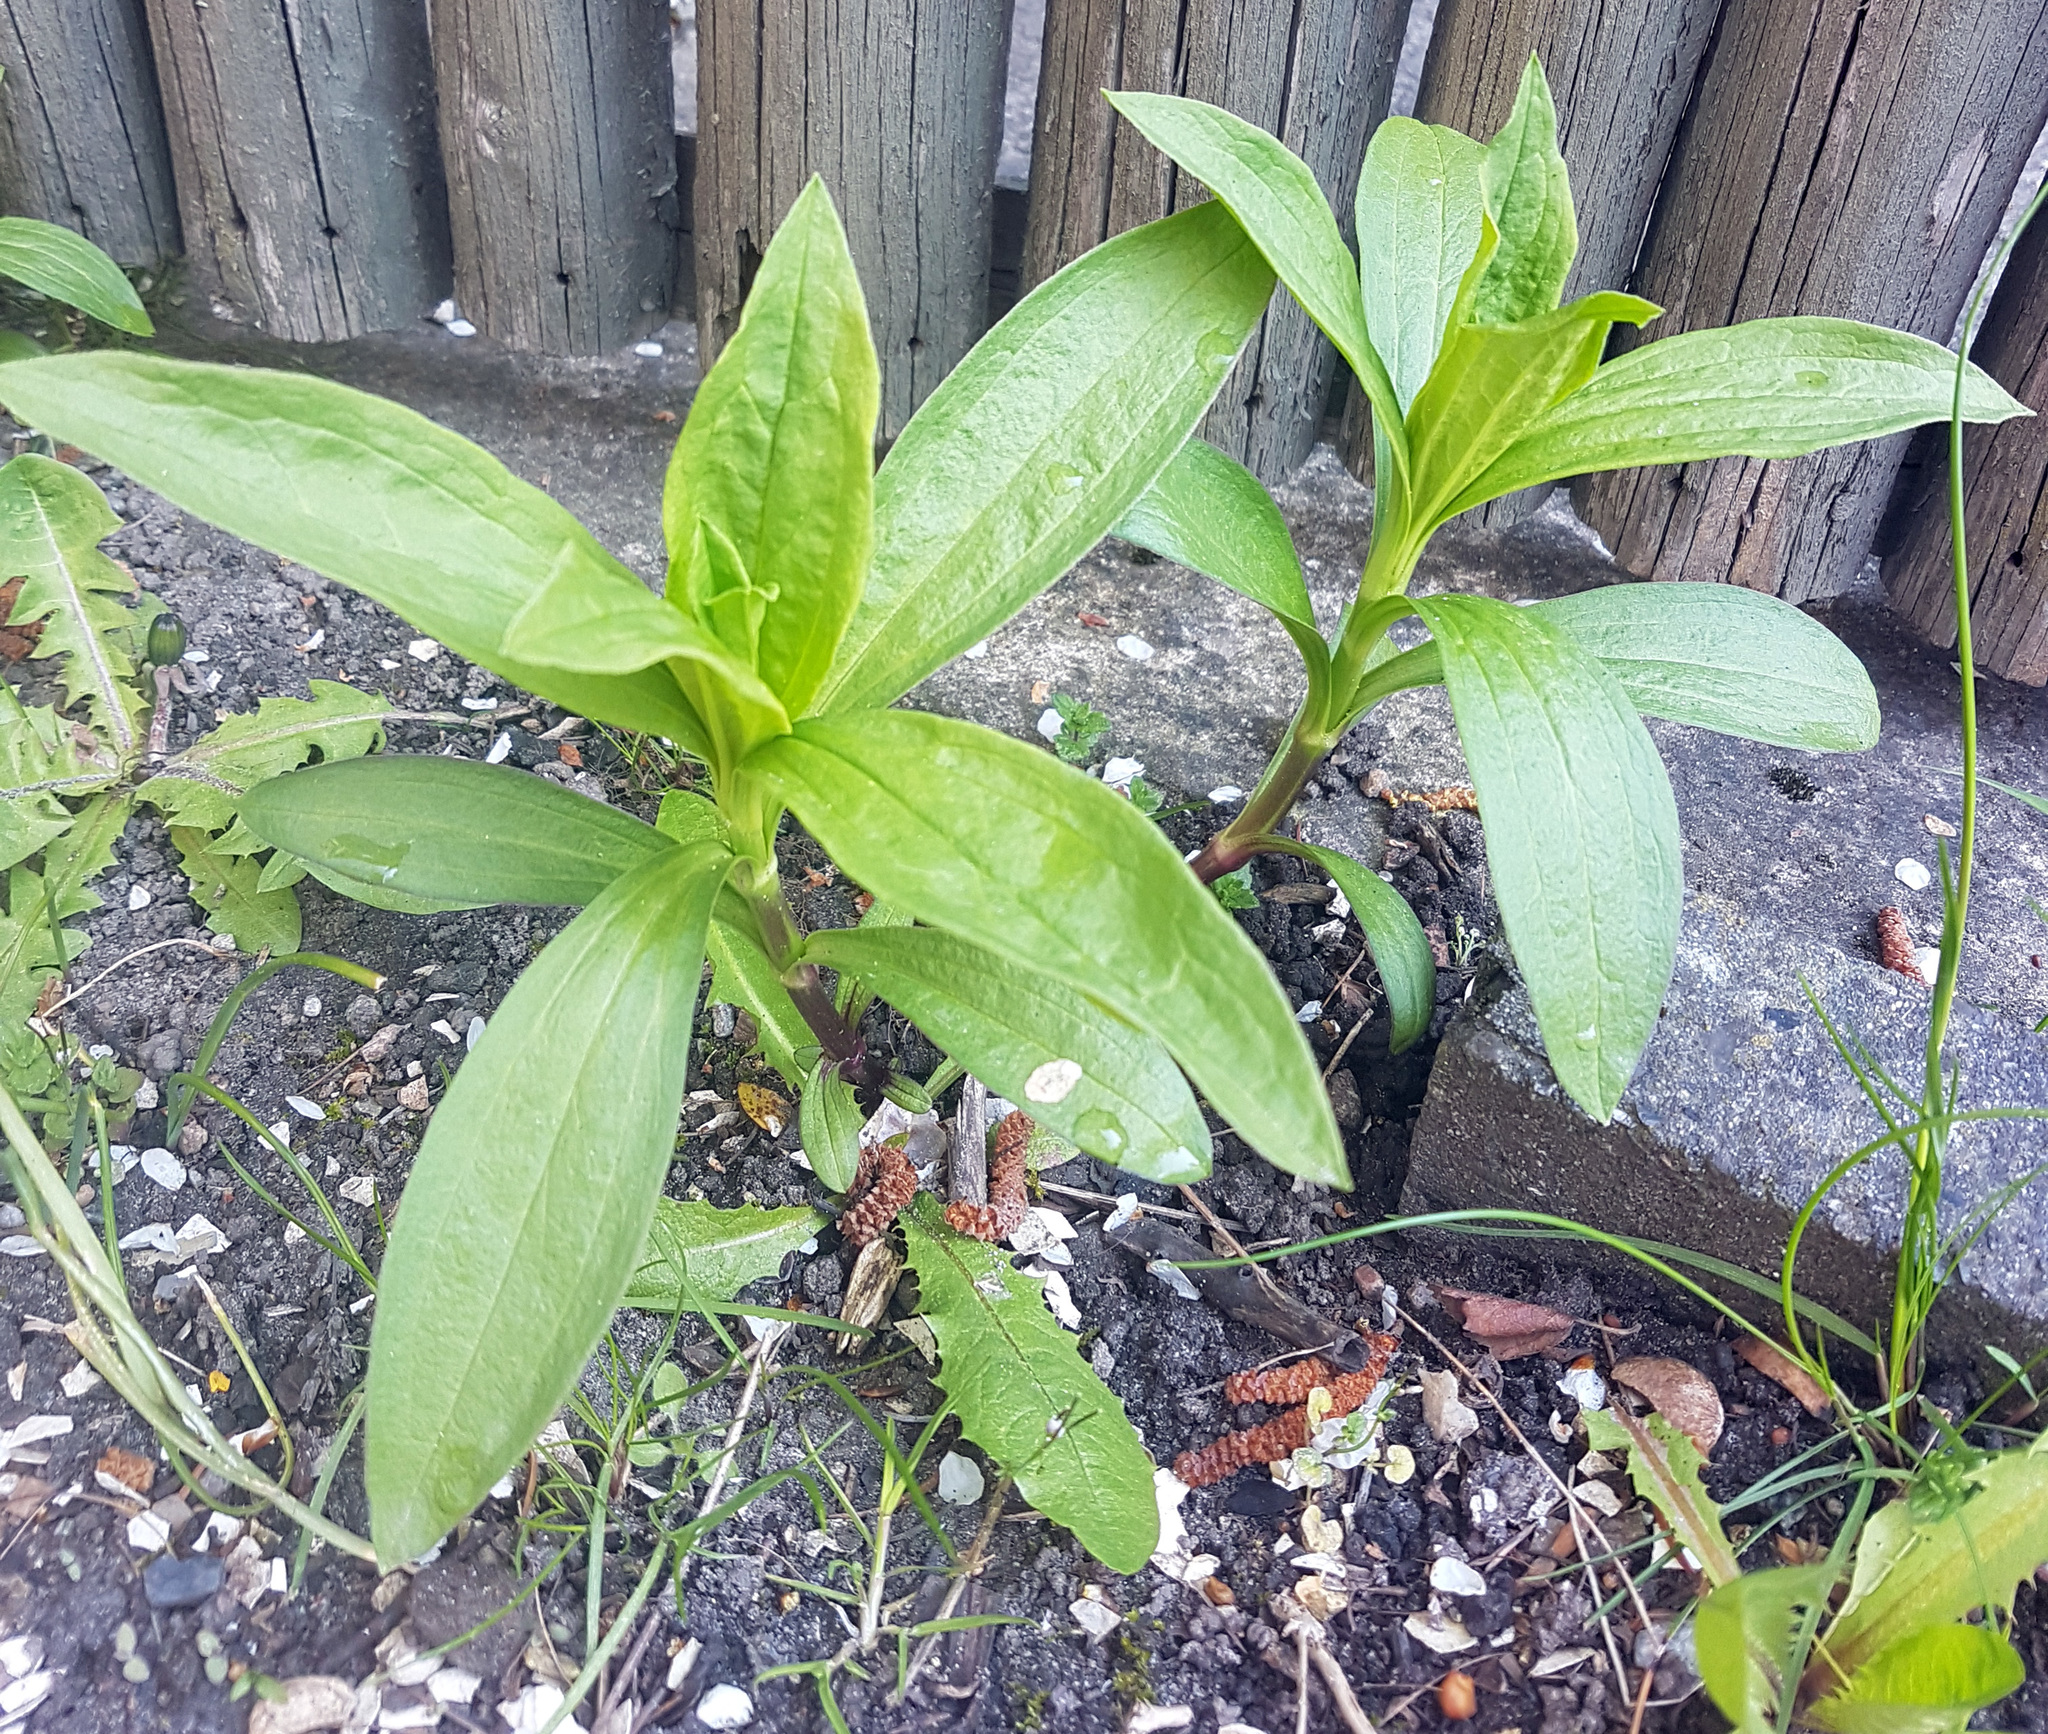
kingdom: Plantae
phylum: Tracheophyta
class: Magnoliopsida
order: Caryophyllales
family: Caryophyllaceae
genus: Saponaria
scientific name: Saponaria officinalis
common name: Soapwort
